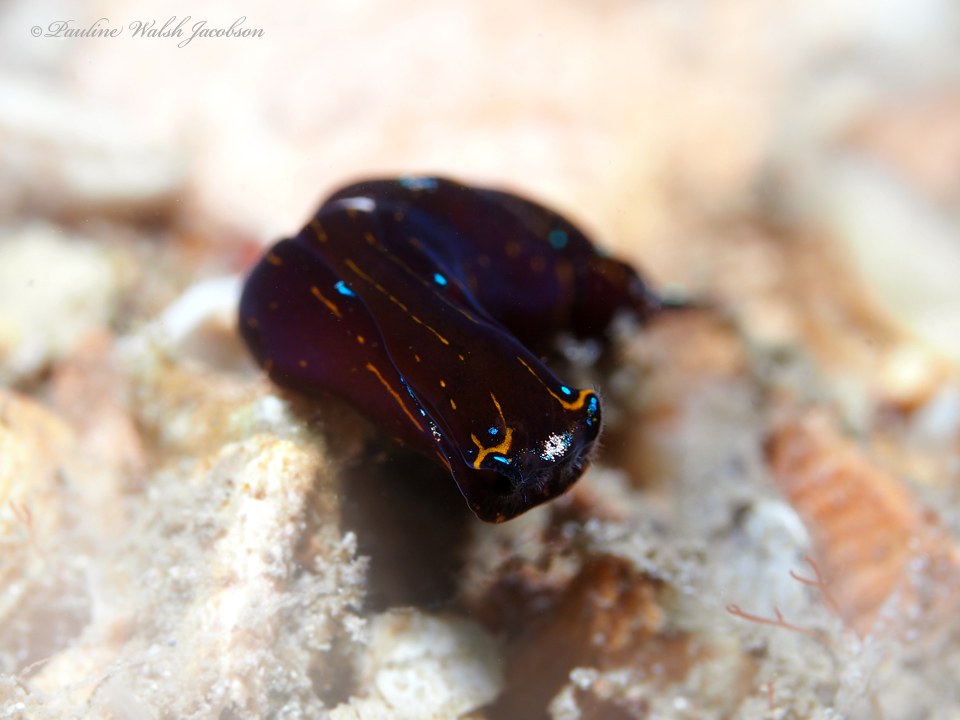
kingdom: Animalia
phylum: Mollusca
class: Gastropoda
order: Cephalaspidea
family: Aglajidae
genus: Chelidonura
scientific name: Chelidonura cubana
